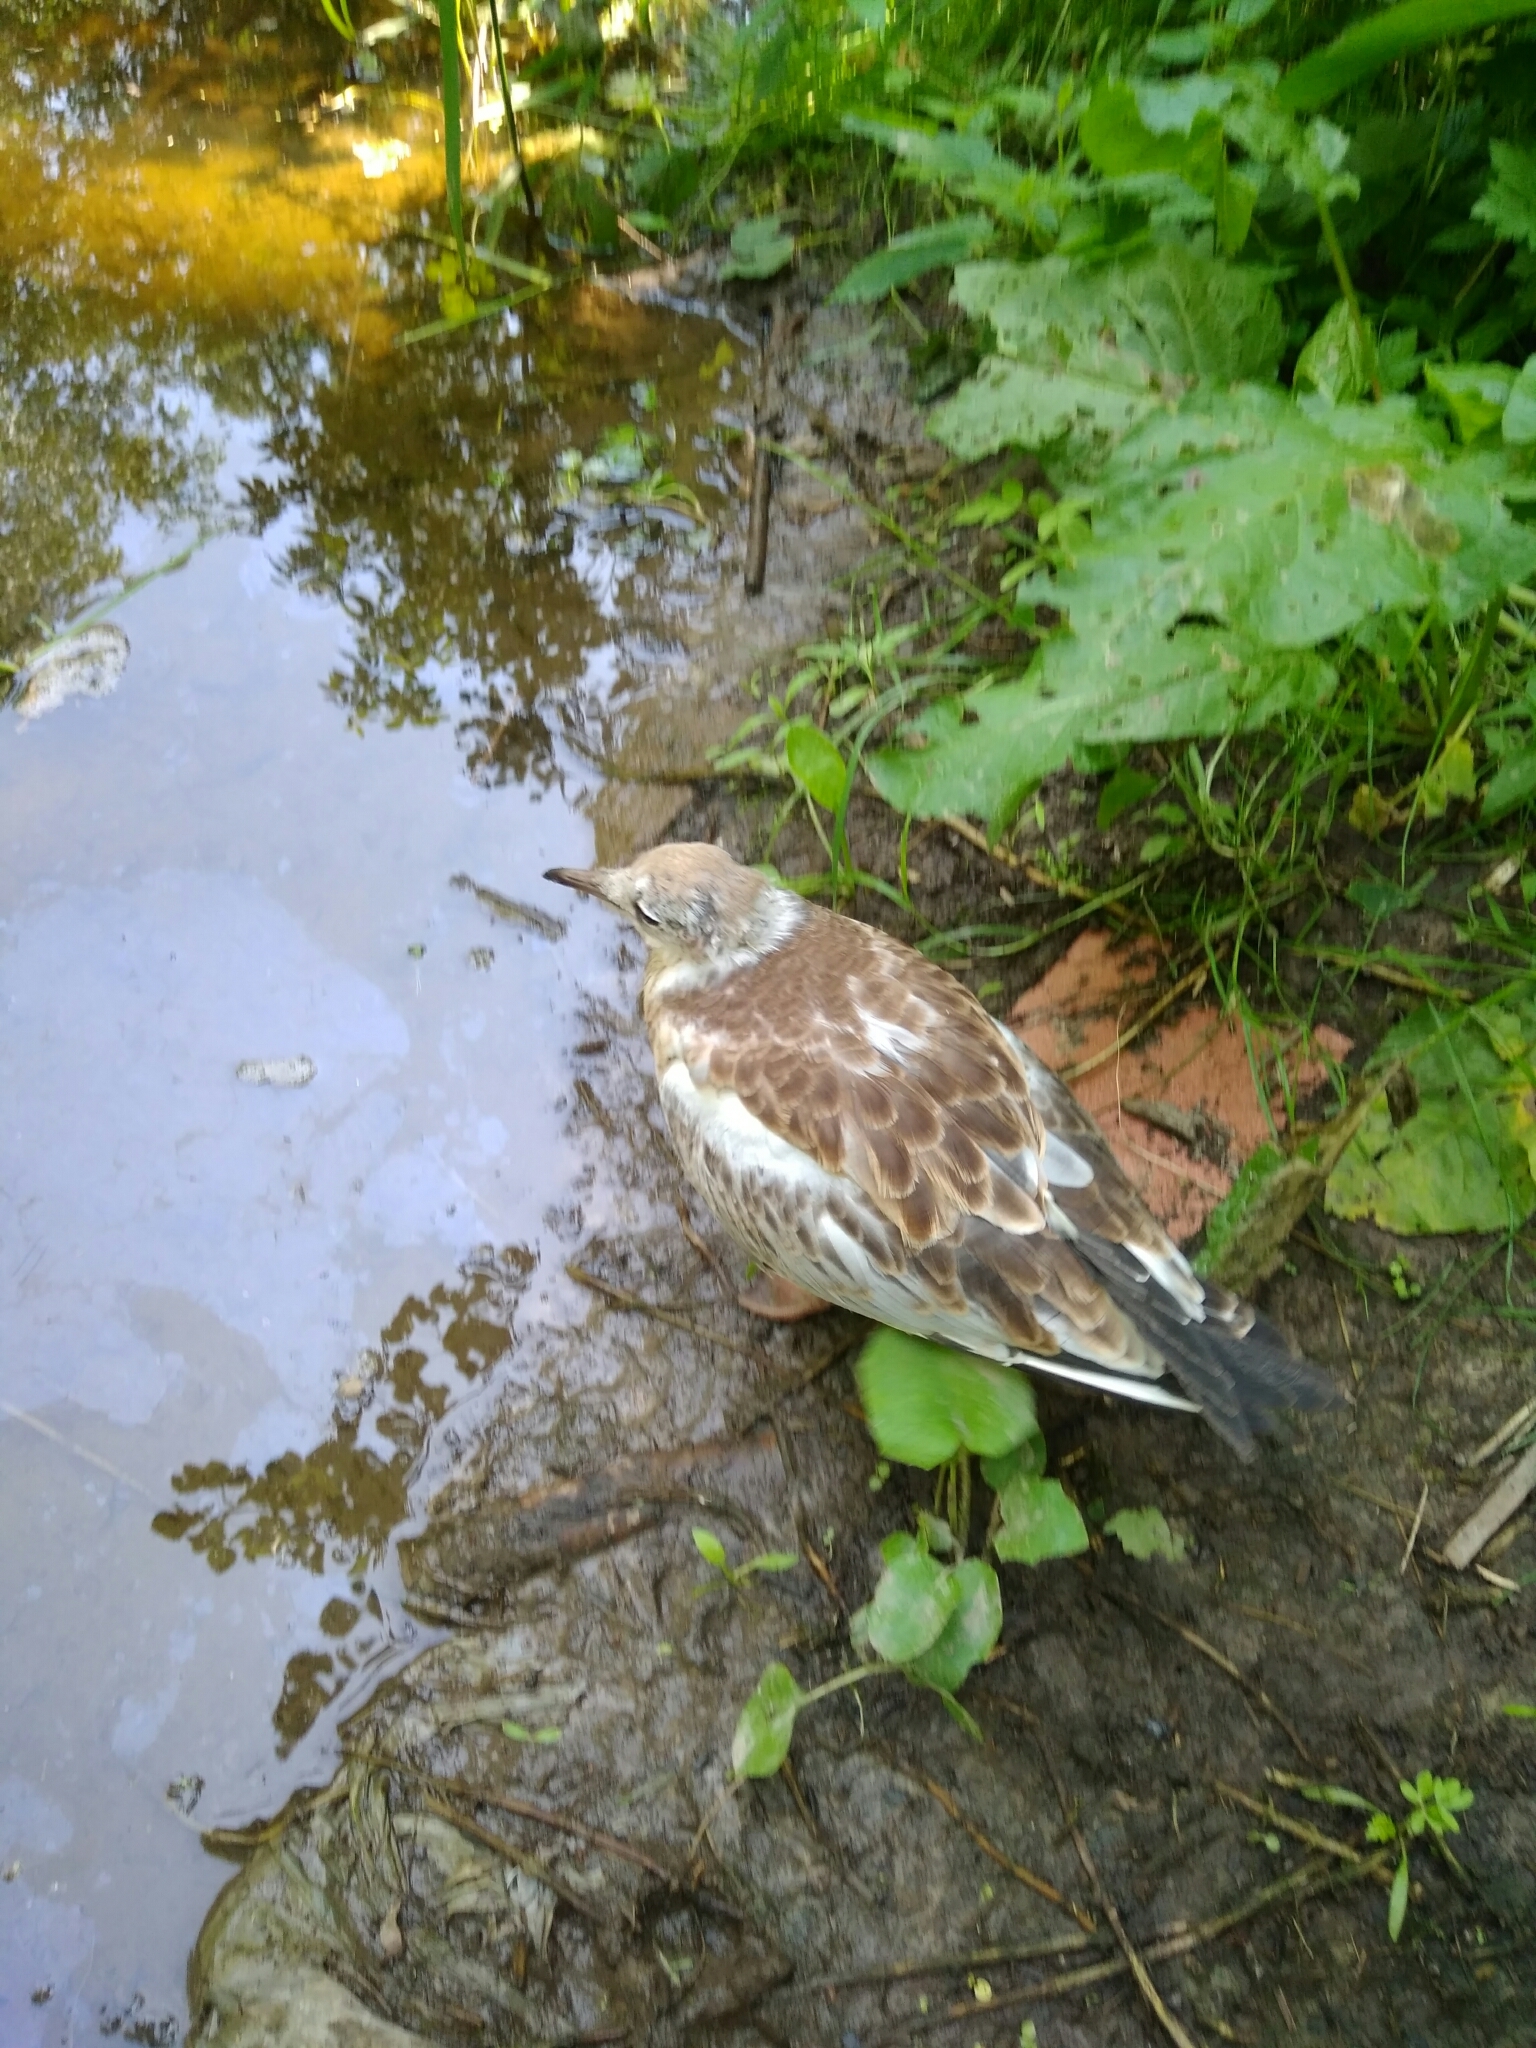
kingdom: Animalia
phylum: Chordata
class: Aves
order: Charadriiformes
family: Laridae
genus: Chroicocephalus
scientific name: Chroicocephalus ridibundus
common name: Black-headed gull
